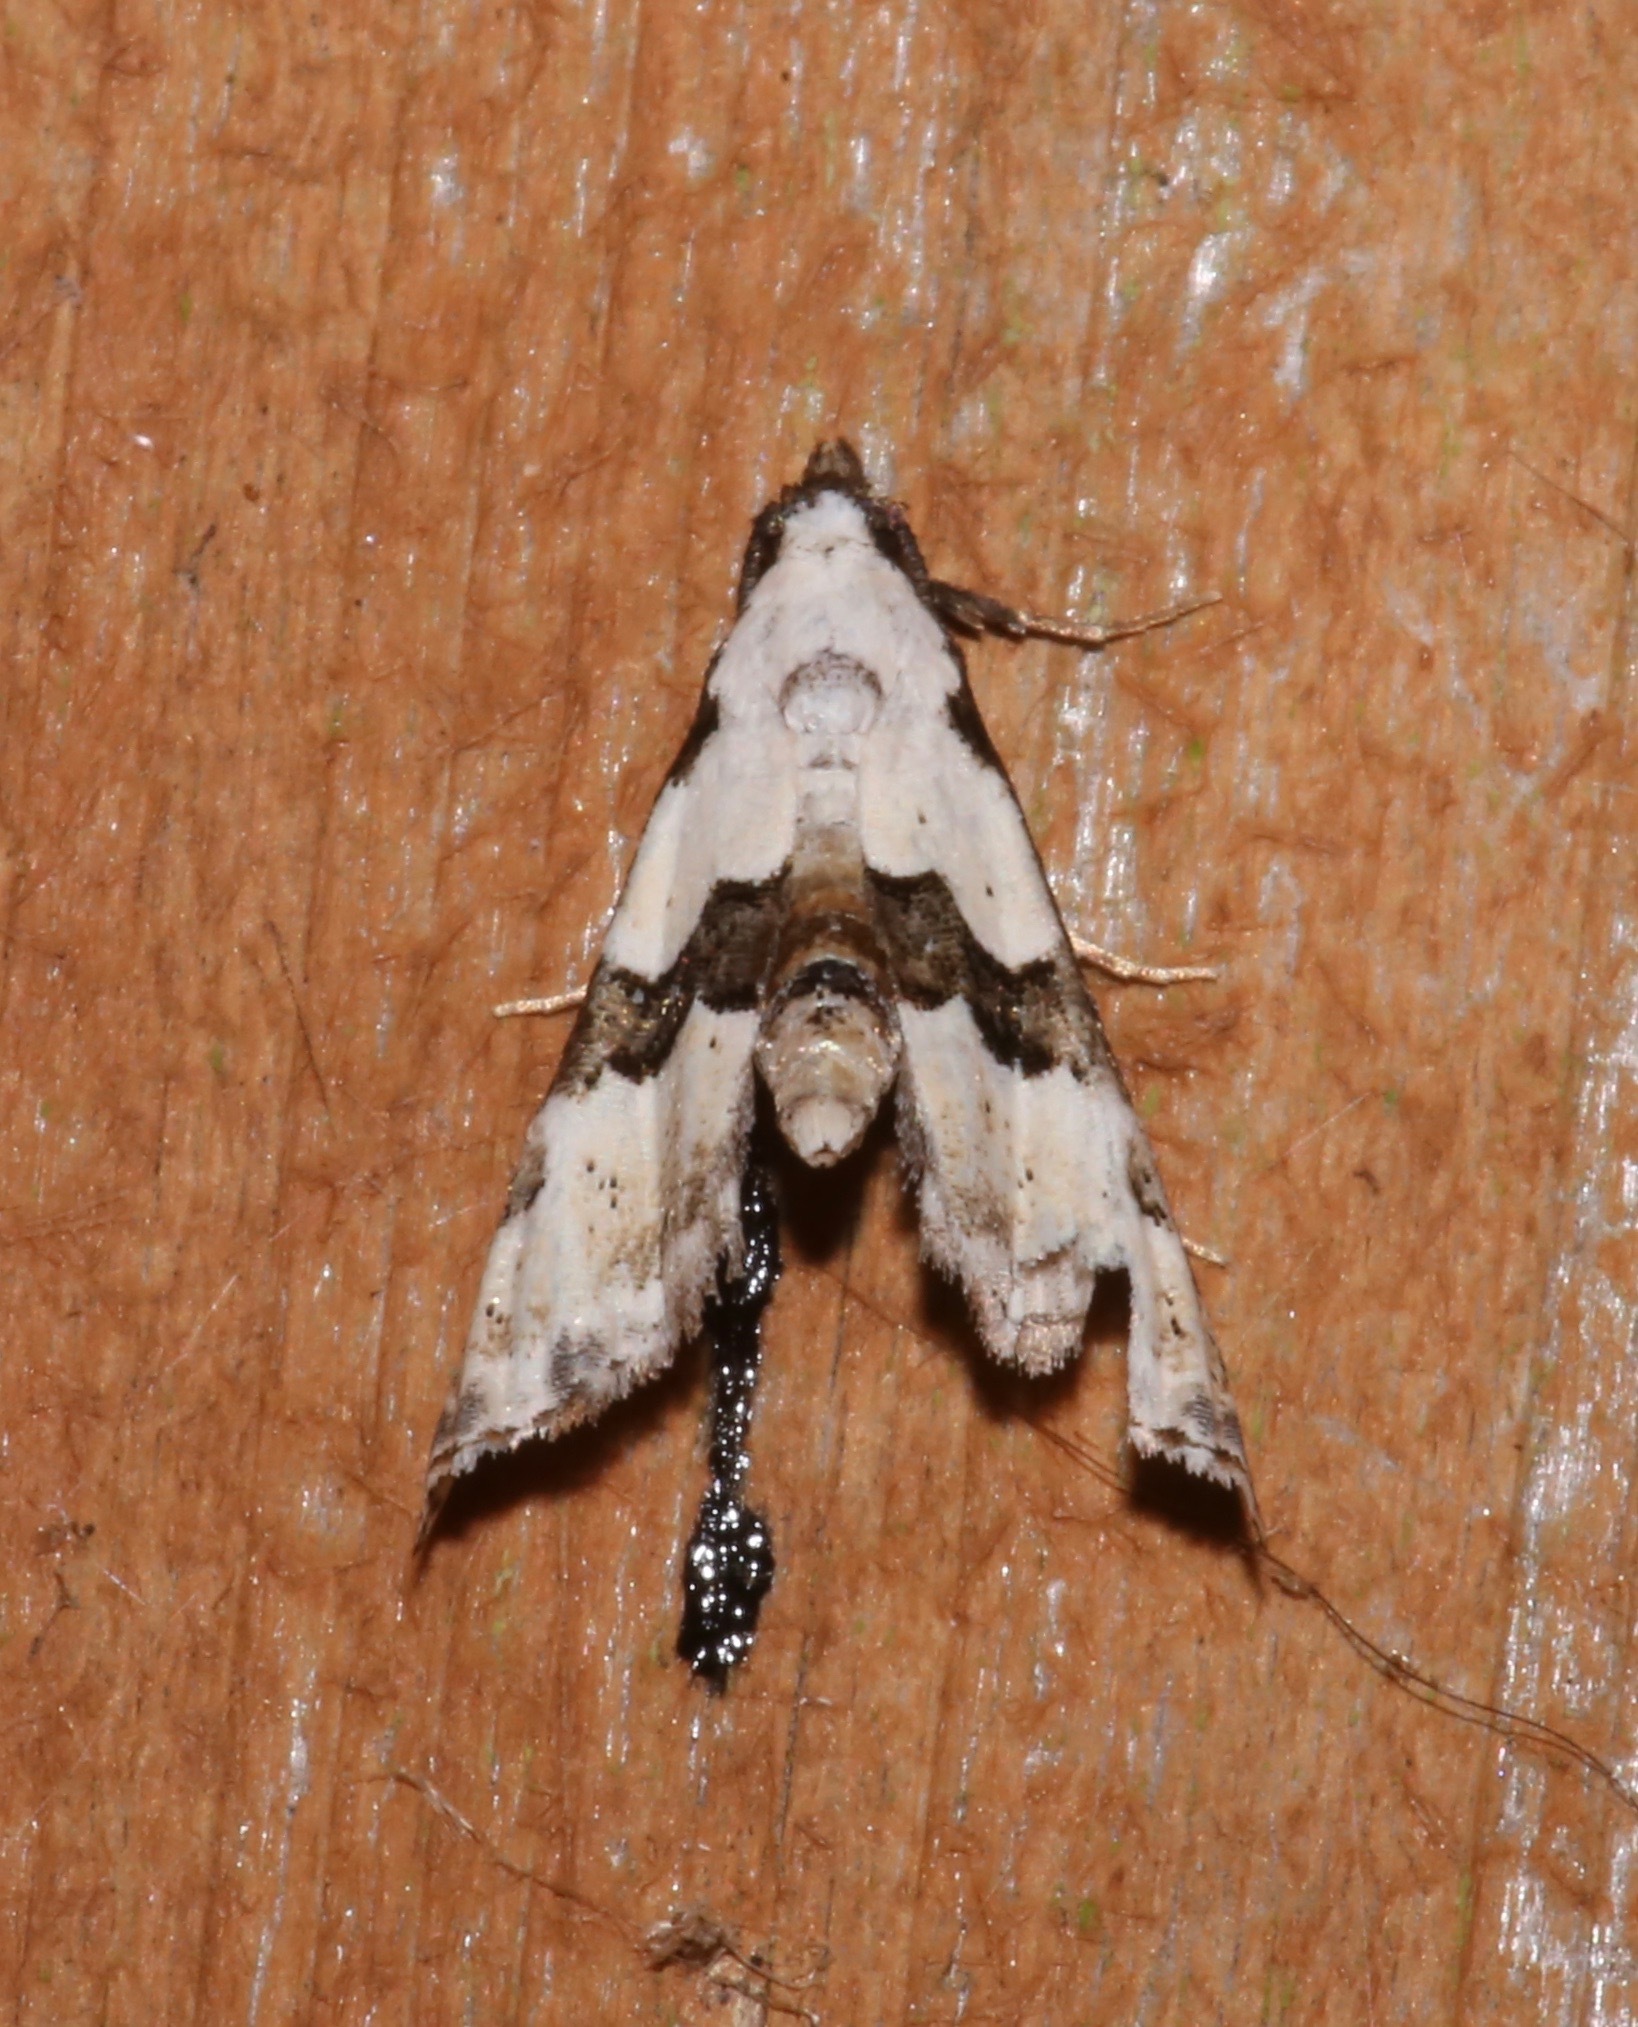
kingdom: Animalia
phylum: Arthropoda
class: Insecta
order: Lepidoptera
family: Noctuidae
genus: Nigetia
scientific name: Nigetia formosalis
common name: Thin-winged owlet
